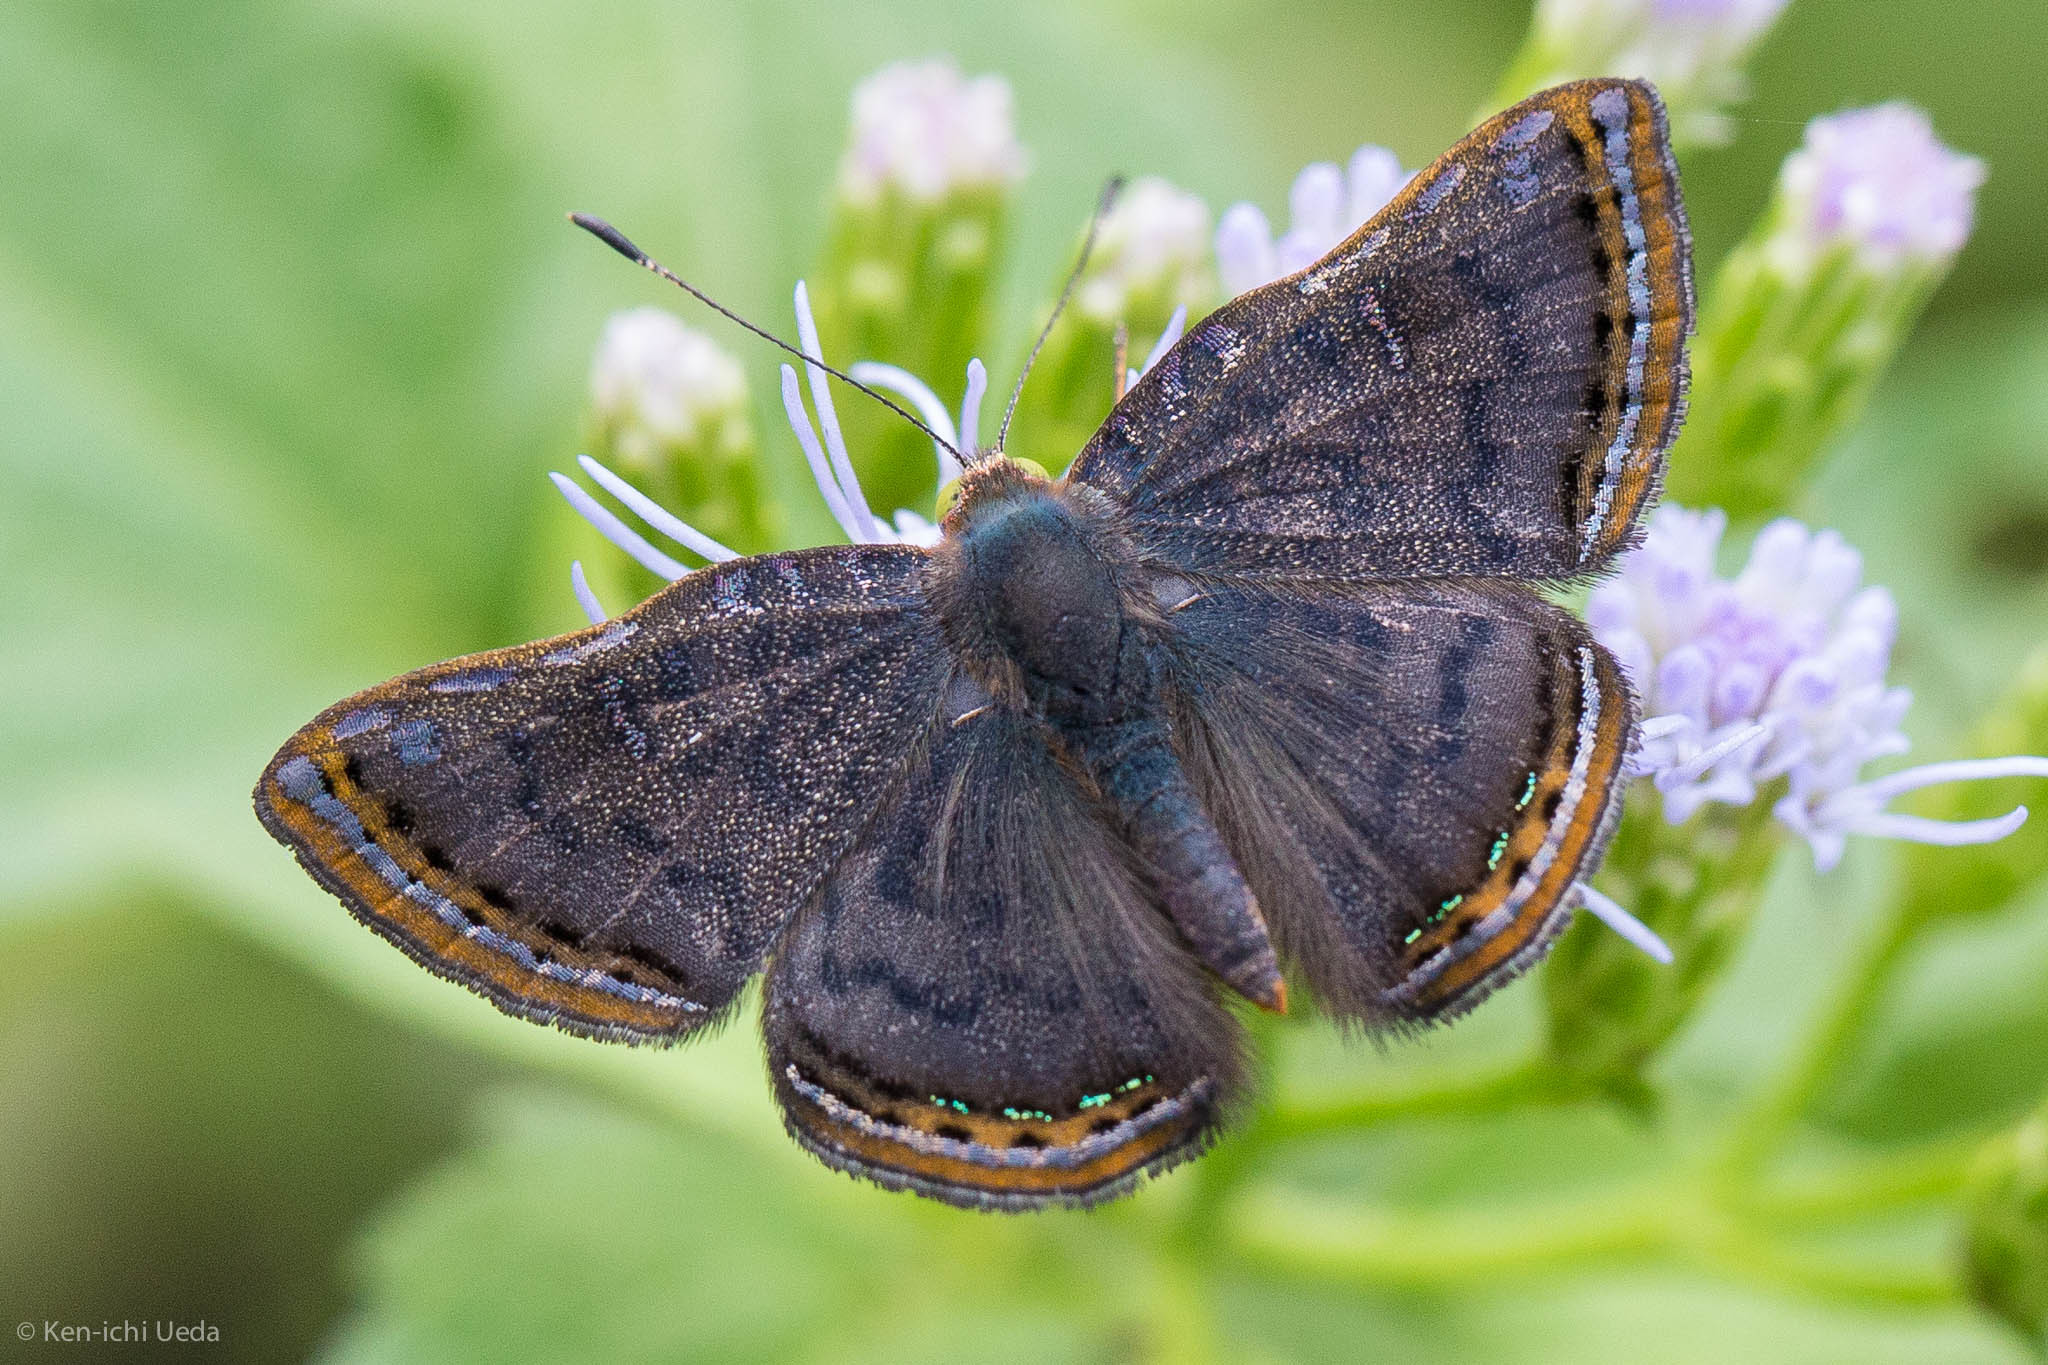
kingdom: Animalia
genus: Caria
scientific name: Caria ino
